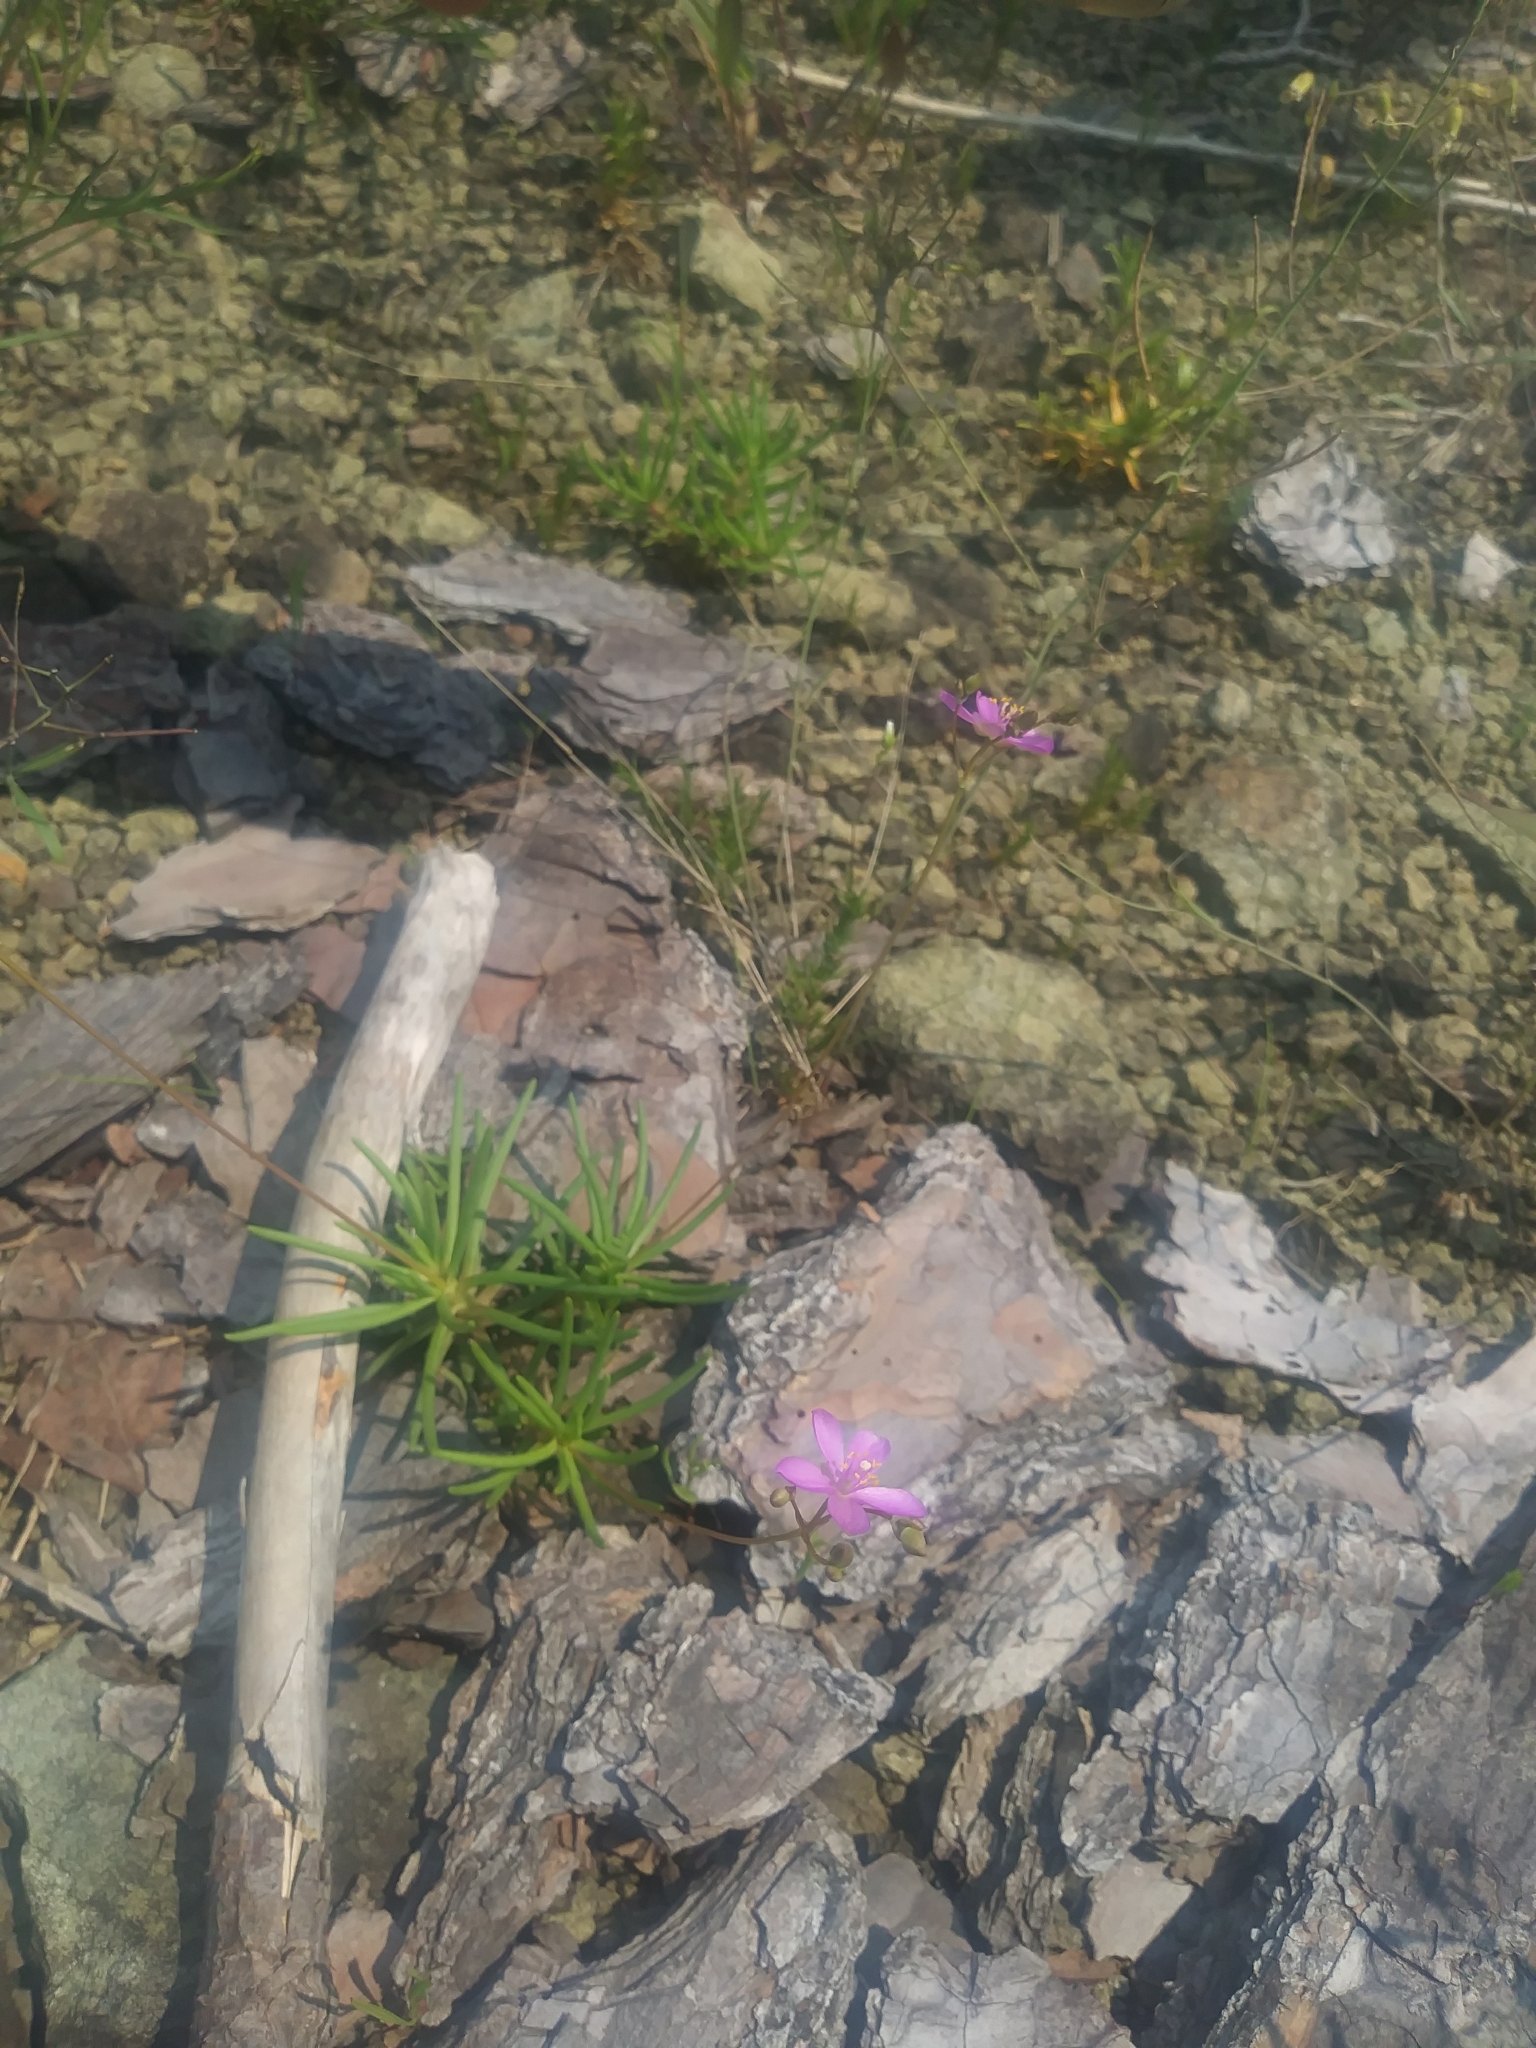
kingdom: Plantae
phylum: Tracheophyta
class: Magnoliopsida
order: Caryophyllales
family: Montiaceae
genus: Phemeranthus
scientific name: Phemeranthus teretifolius
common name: Quill fameflower
